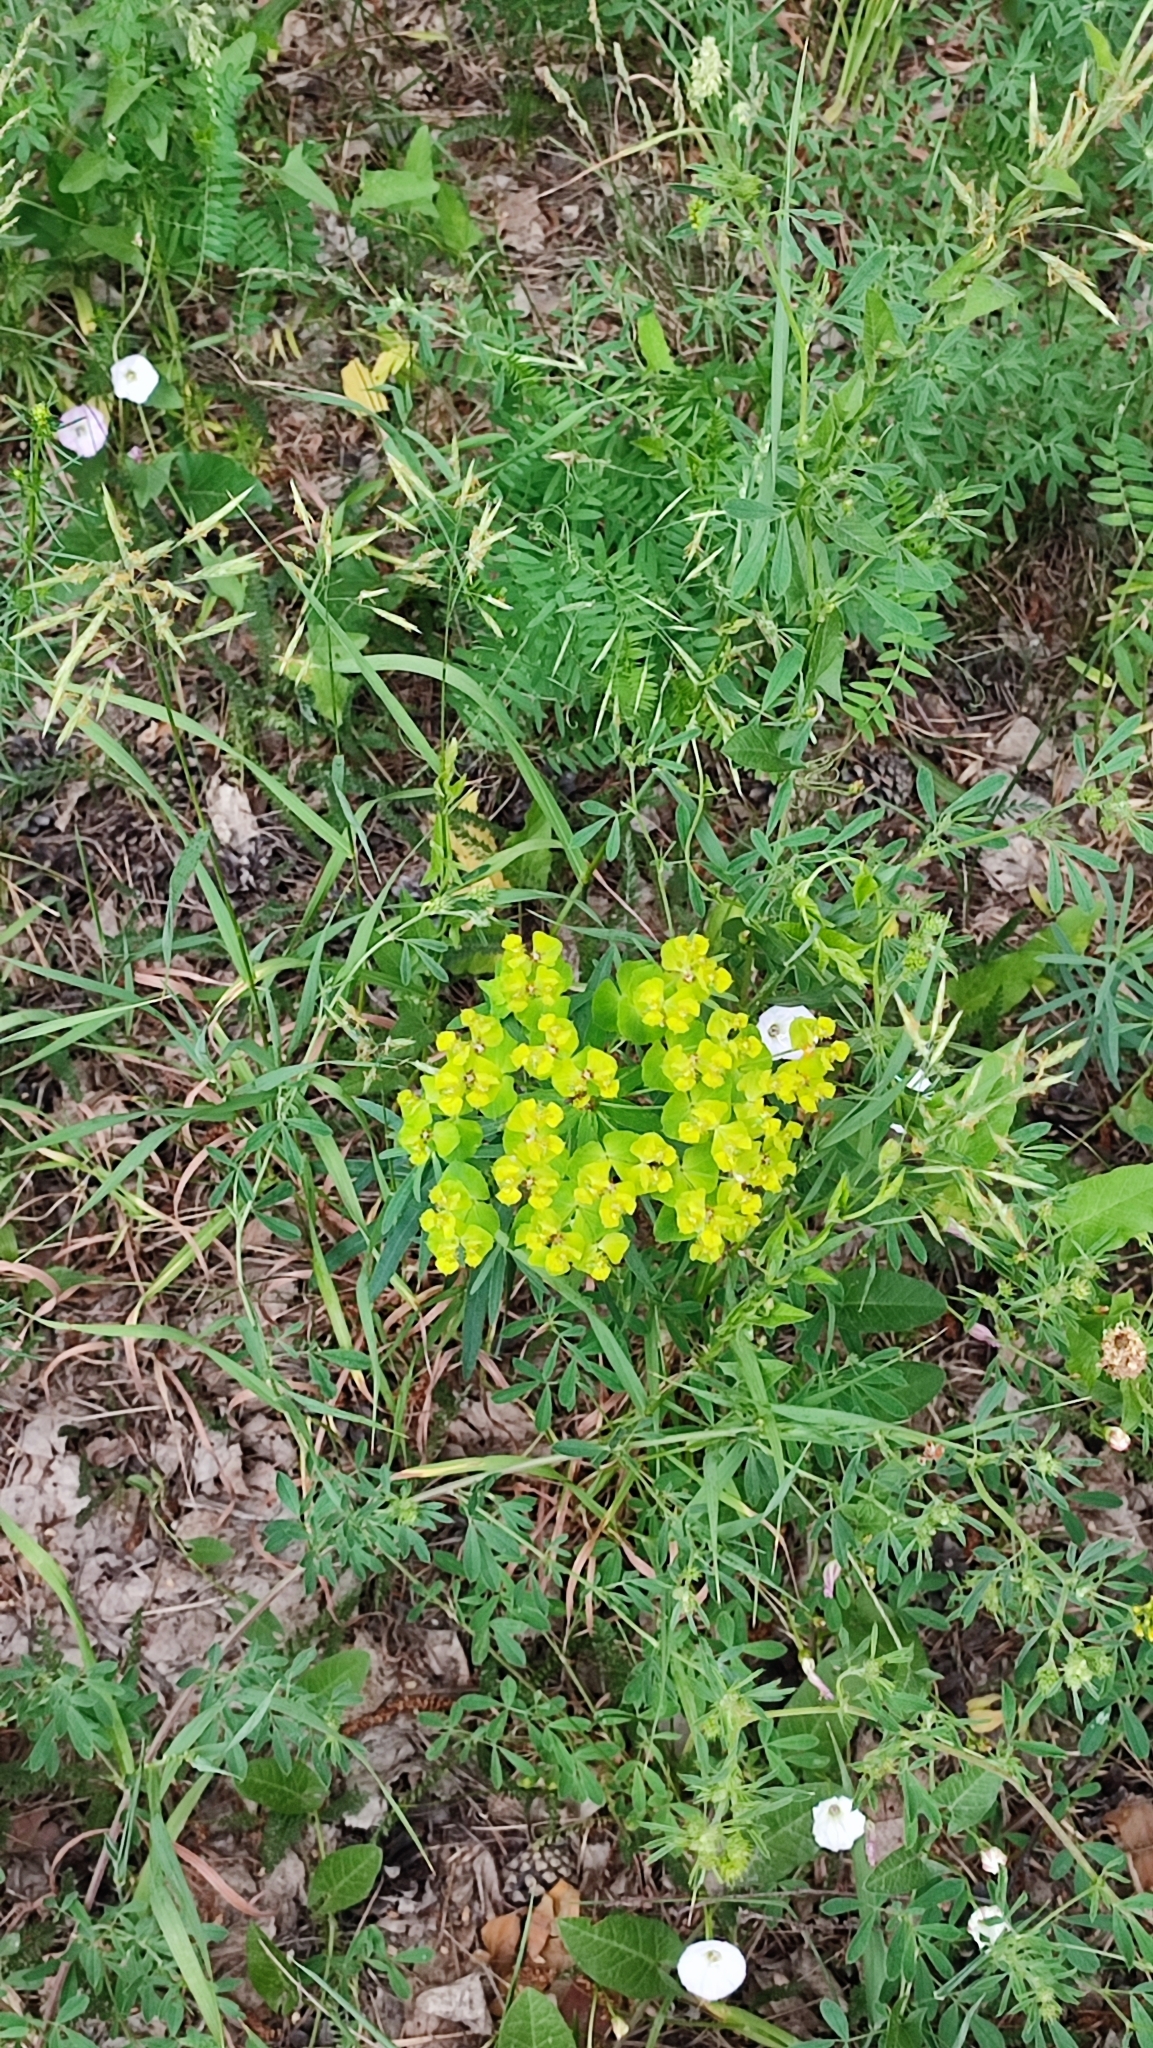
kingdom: Plantae
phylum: Tracheophyta
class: Magnoliopsida
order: Malpighiales
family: Euphorbiaceae
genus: Euphorbia
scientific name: Euphorbia virgata
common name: Leafy spurge
